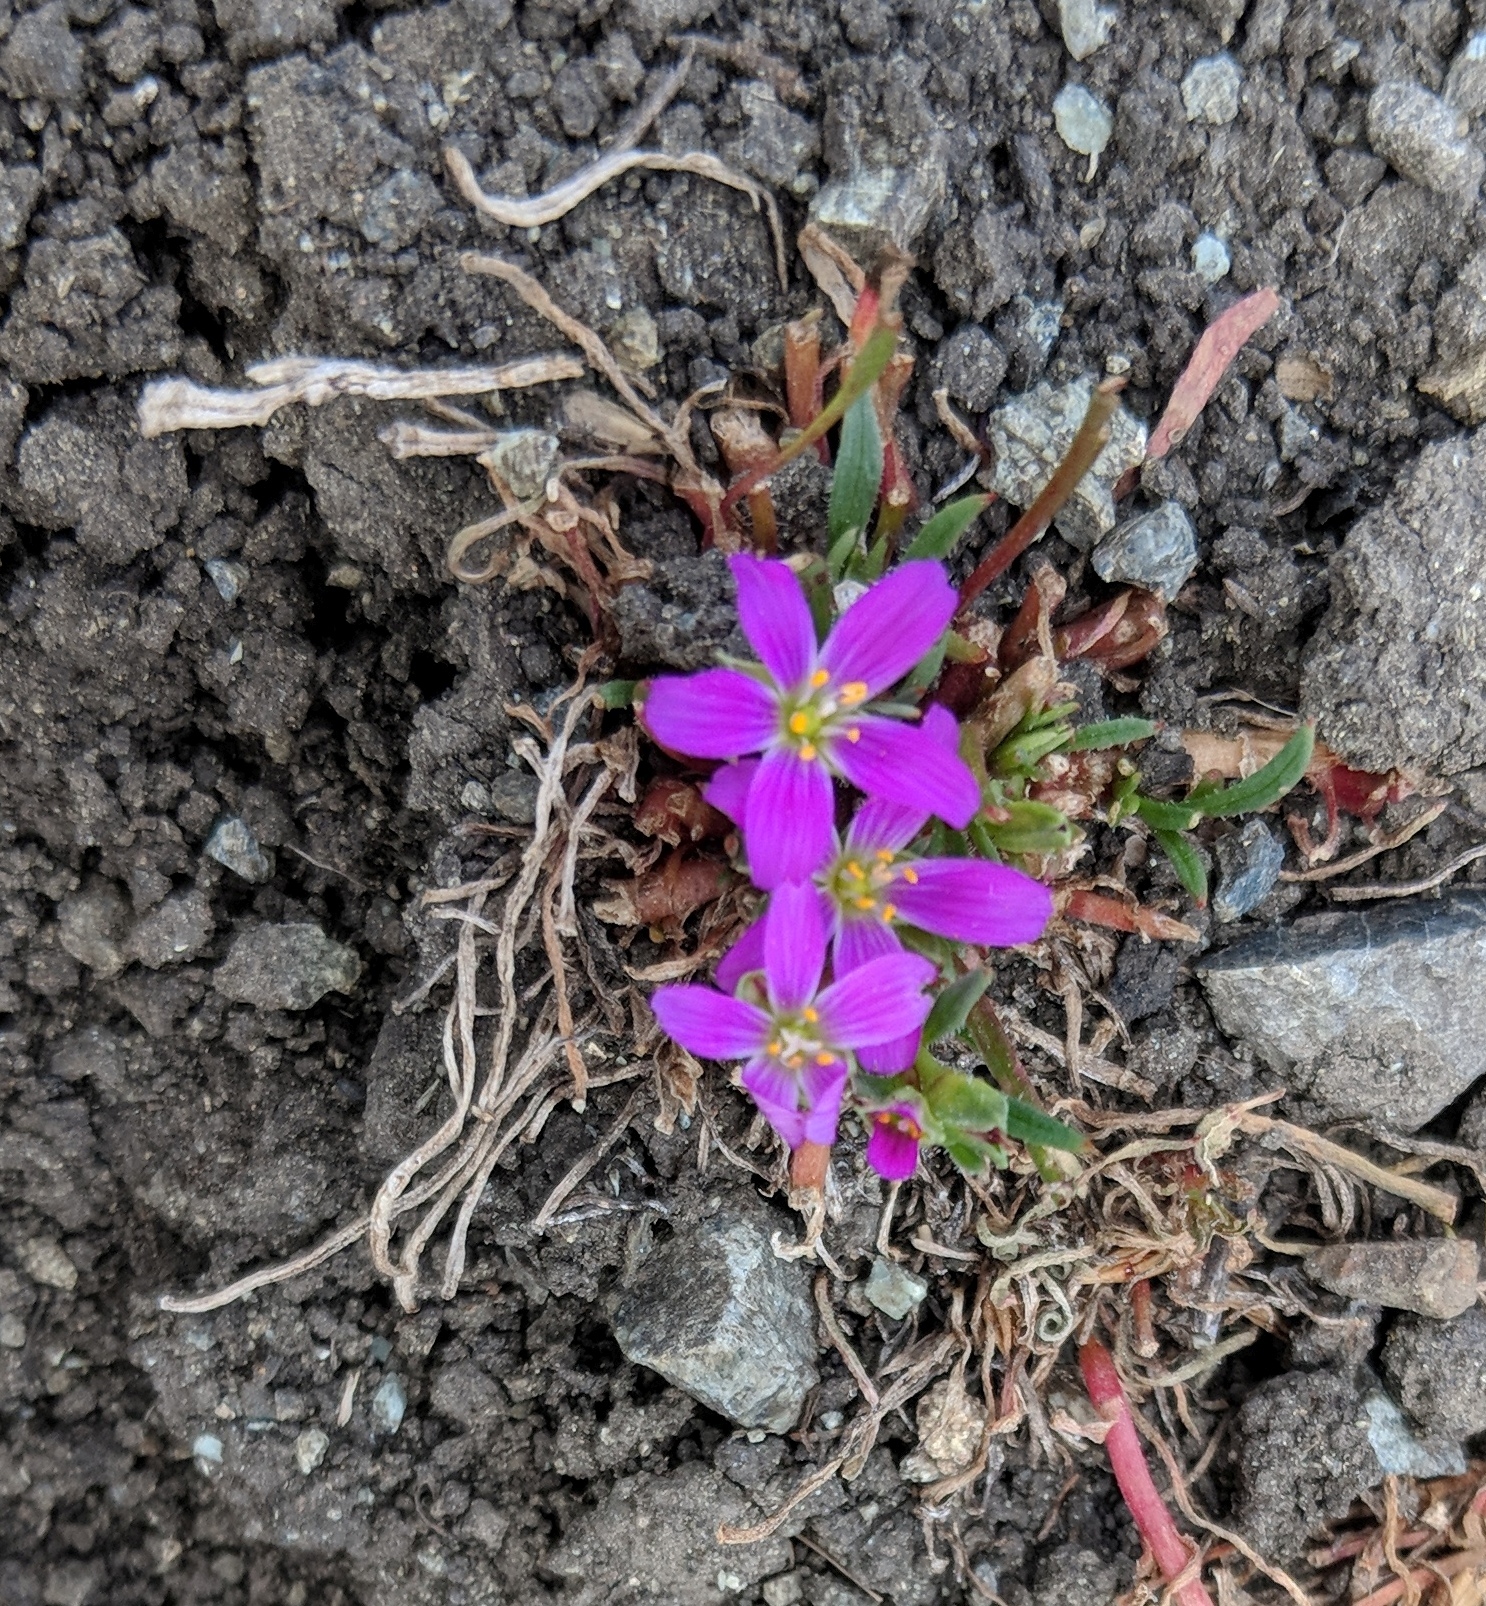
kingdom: Plantae
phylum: Tracheophyta
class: Magnoliopsida
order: Caryophyllales
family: Montiaceae
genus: Calandrinia
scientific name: Calandrinia menziesii
